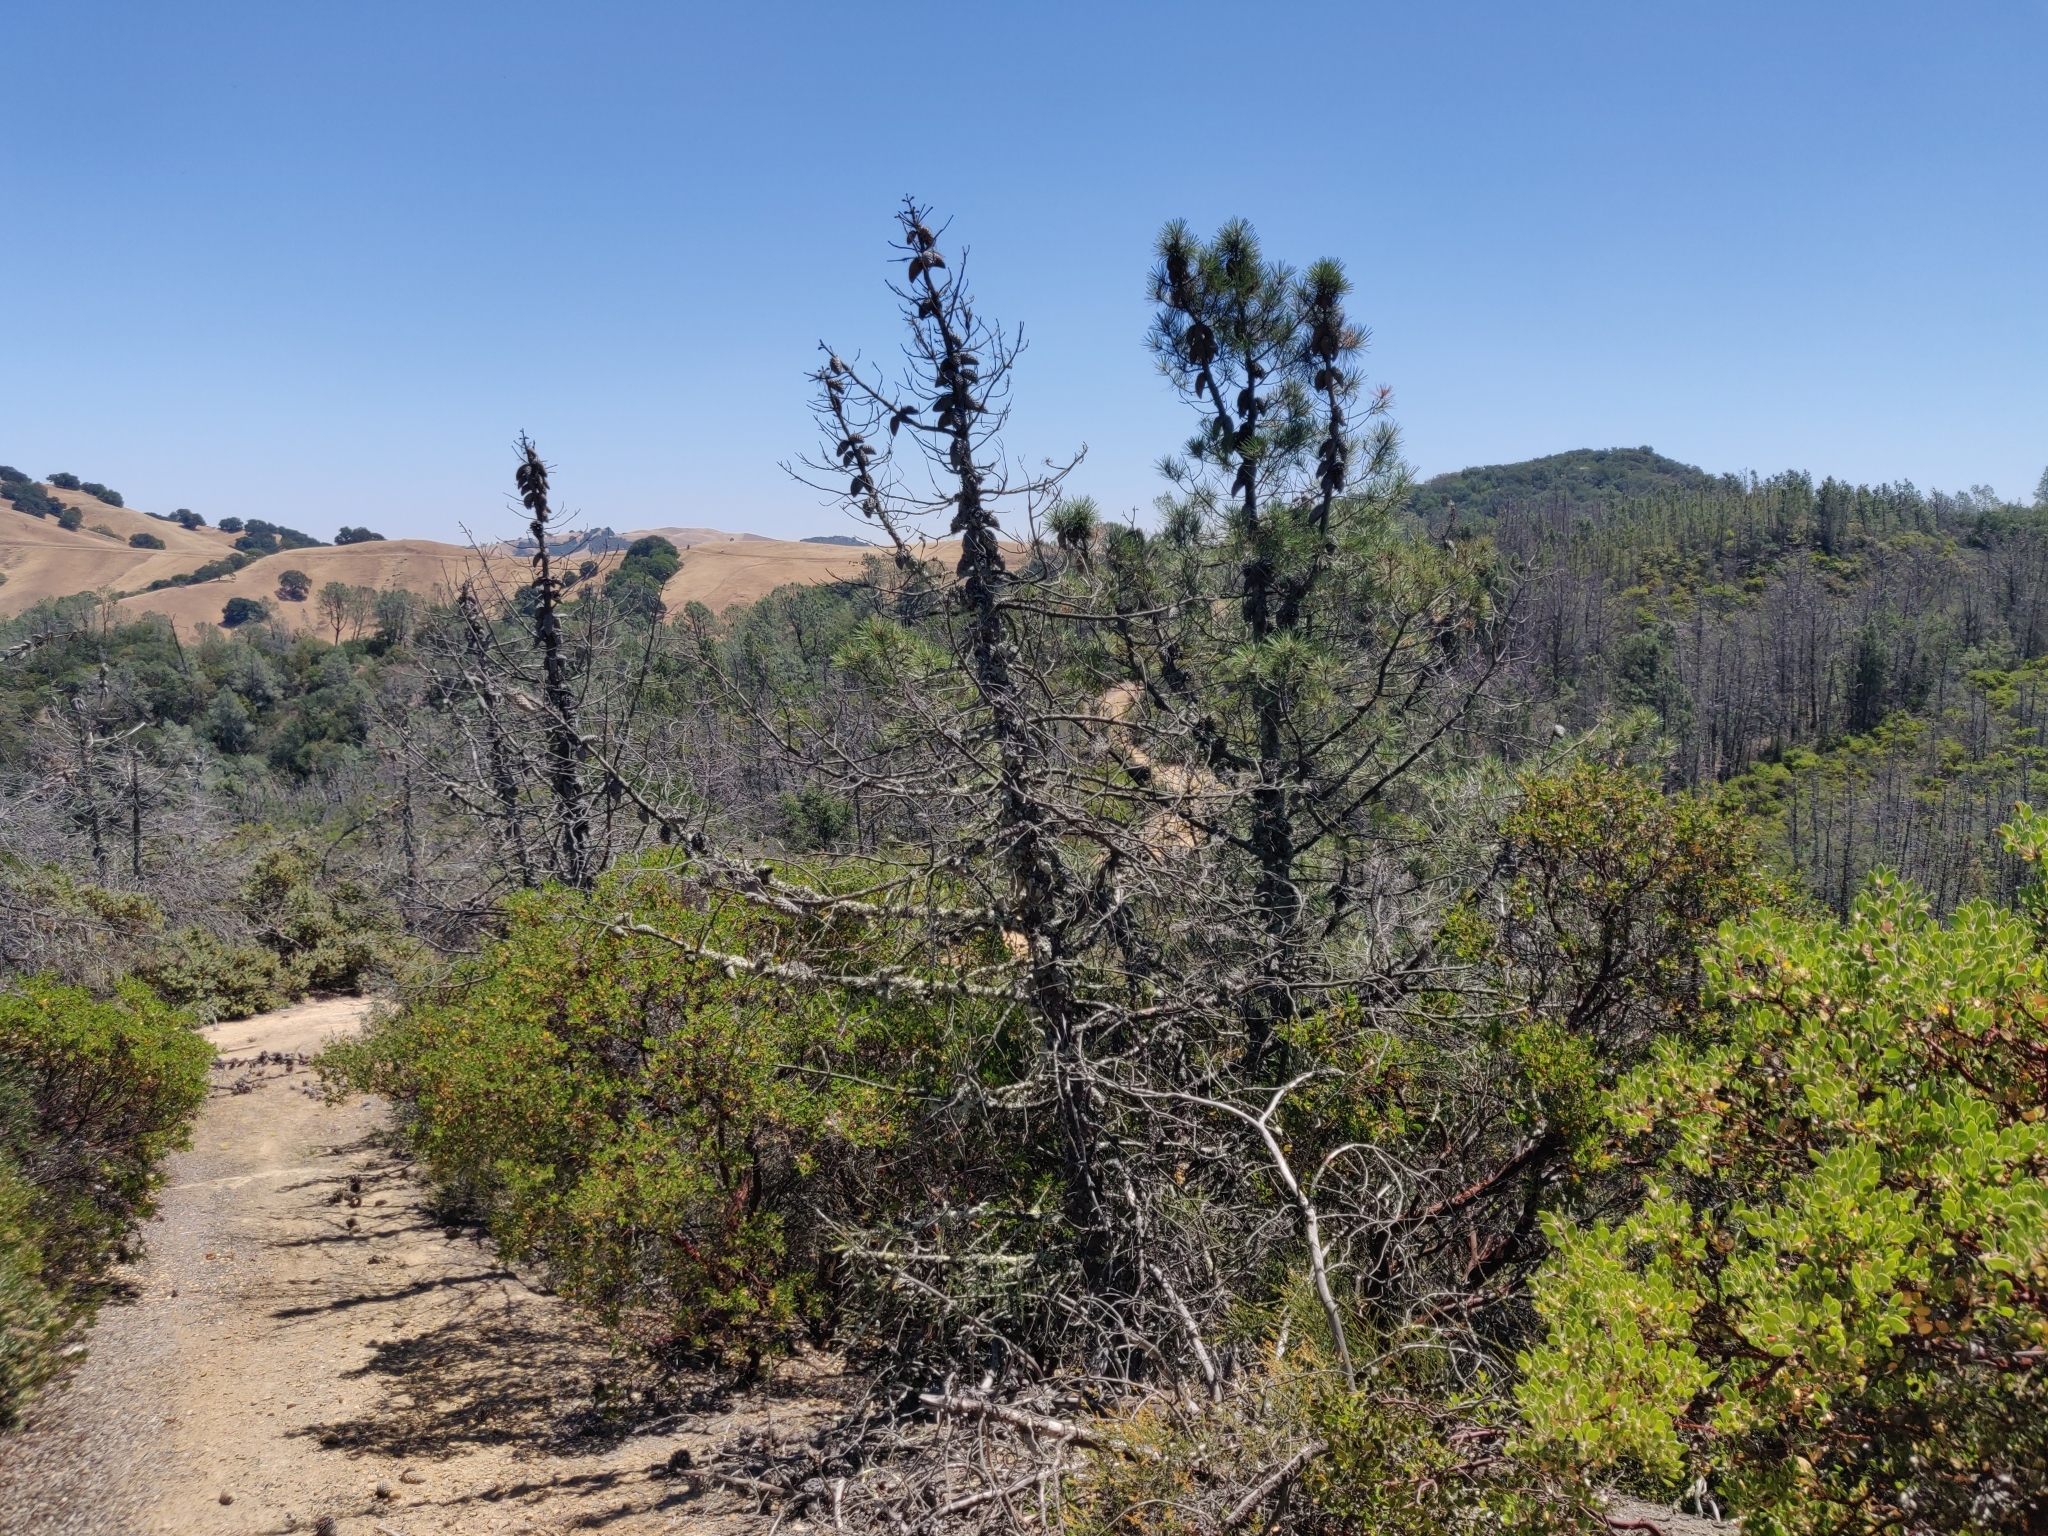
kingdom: Plantae
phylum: Tracheophyta
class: Pinopsida
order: Pinales
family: Pinaceae
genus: Pinus
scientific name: Pinus attenuata
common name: Knobcone pine
